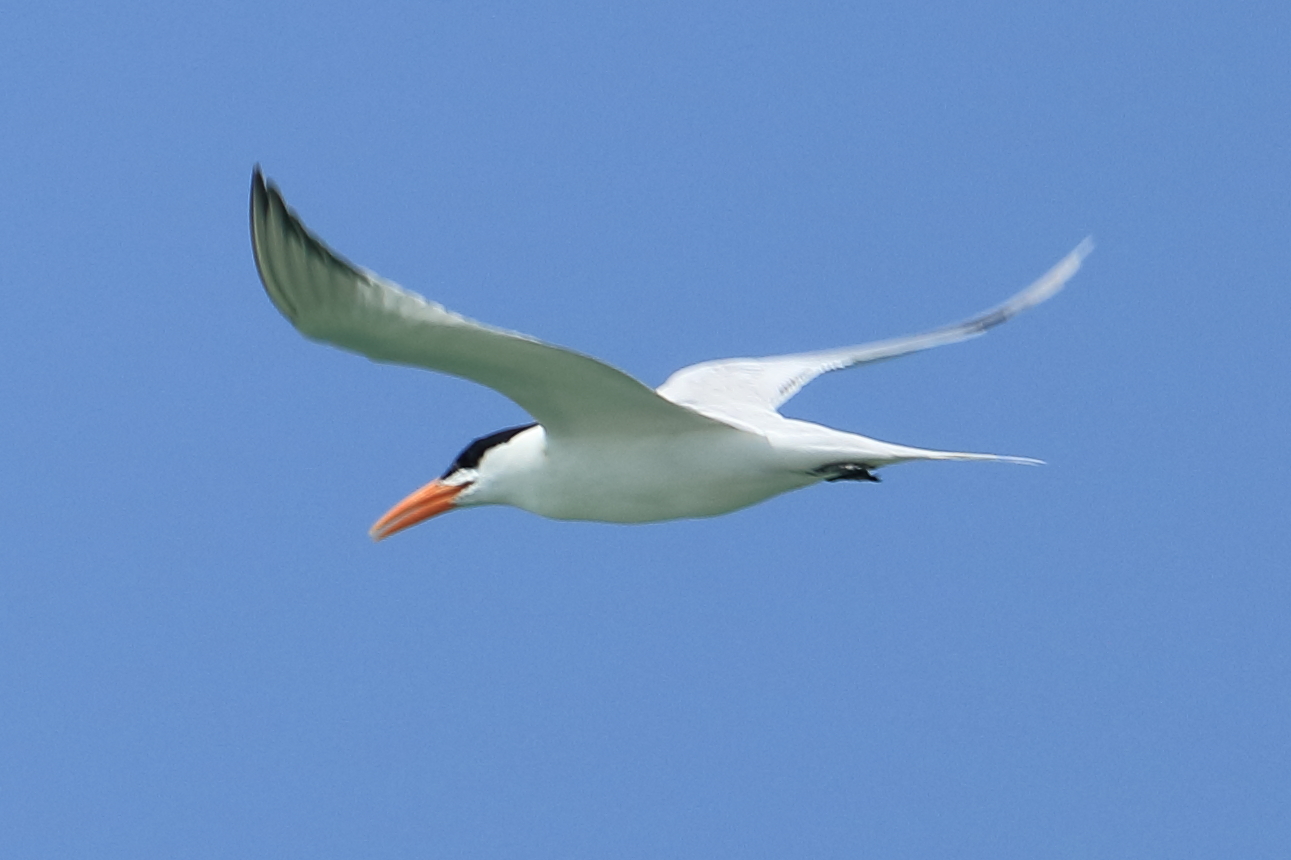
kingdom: Animalia
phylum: Chordata
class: Aves
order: Charadriiformes
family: Laridae
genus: Thalasseus
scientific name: Thalasseus maximus
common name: Royal tern
